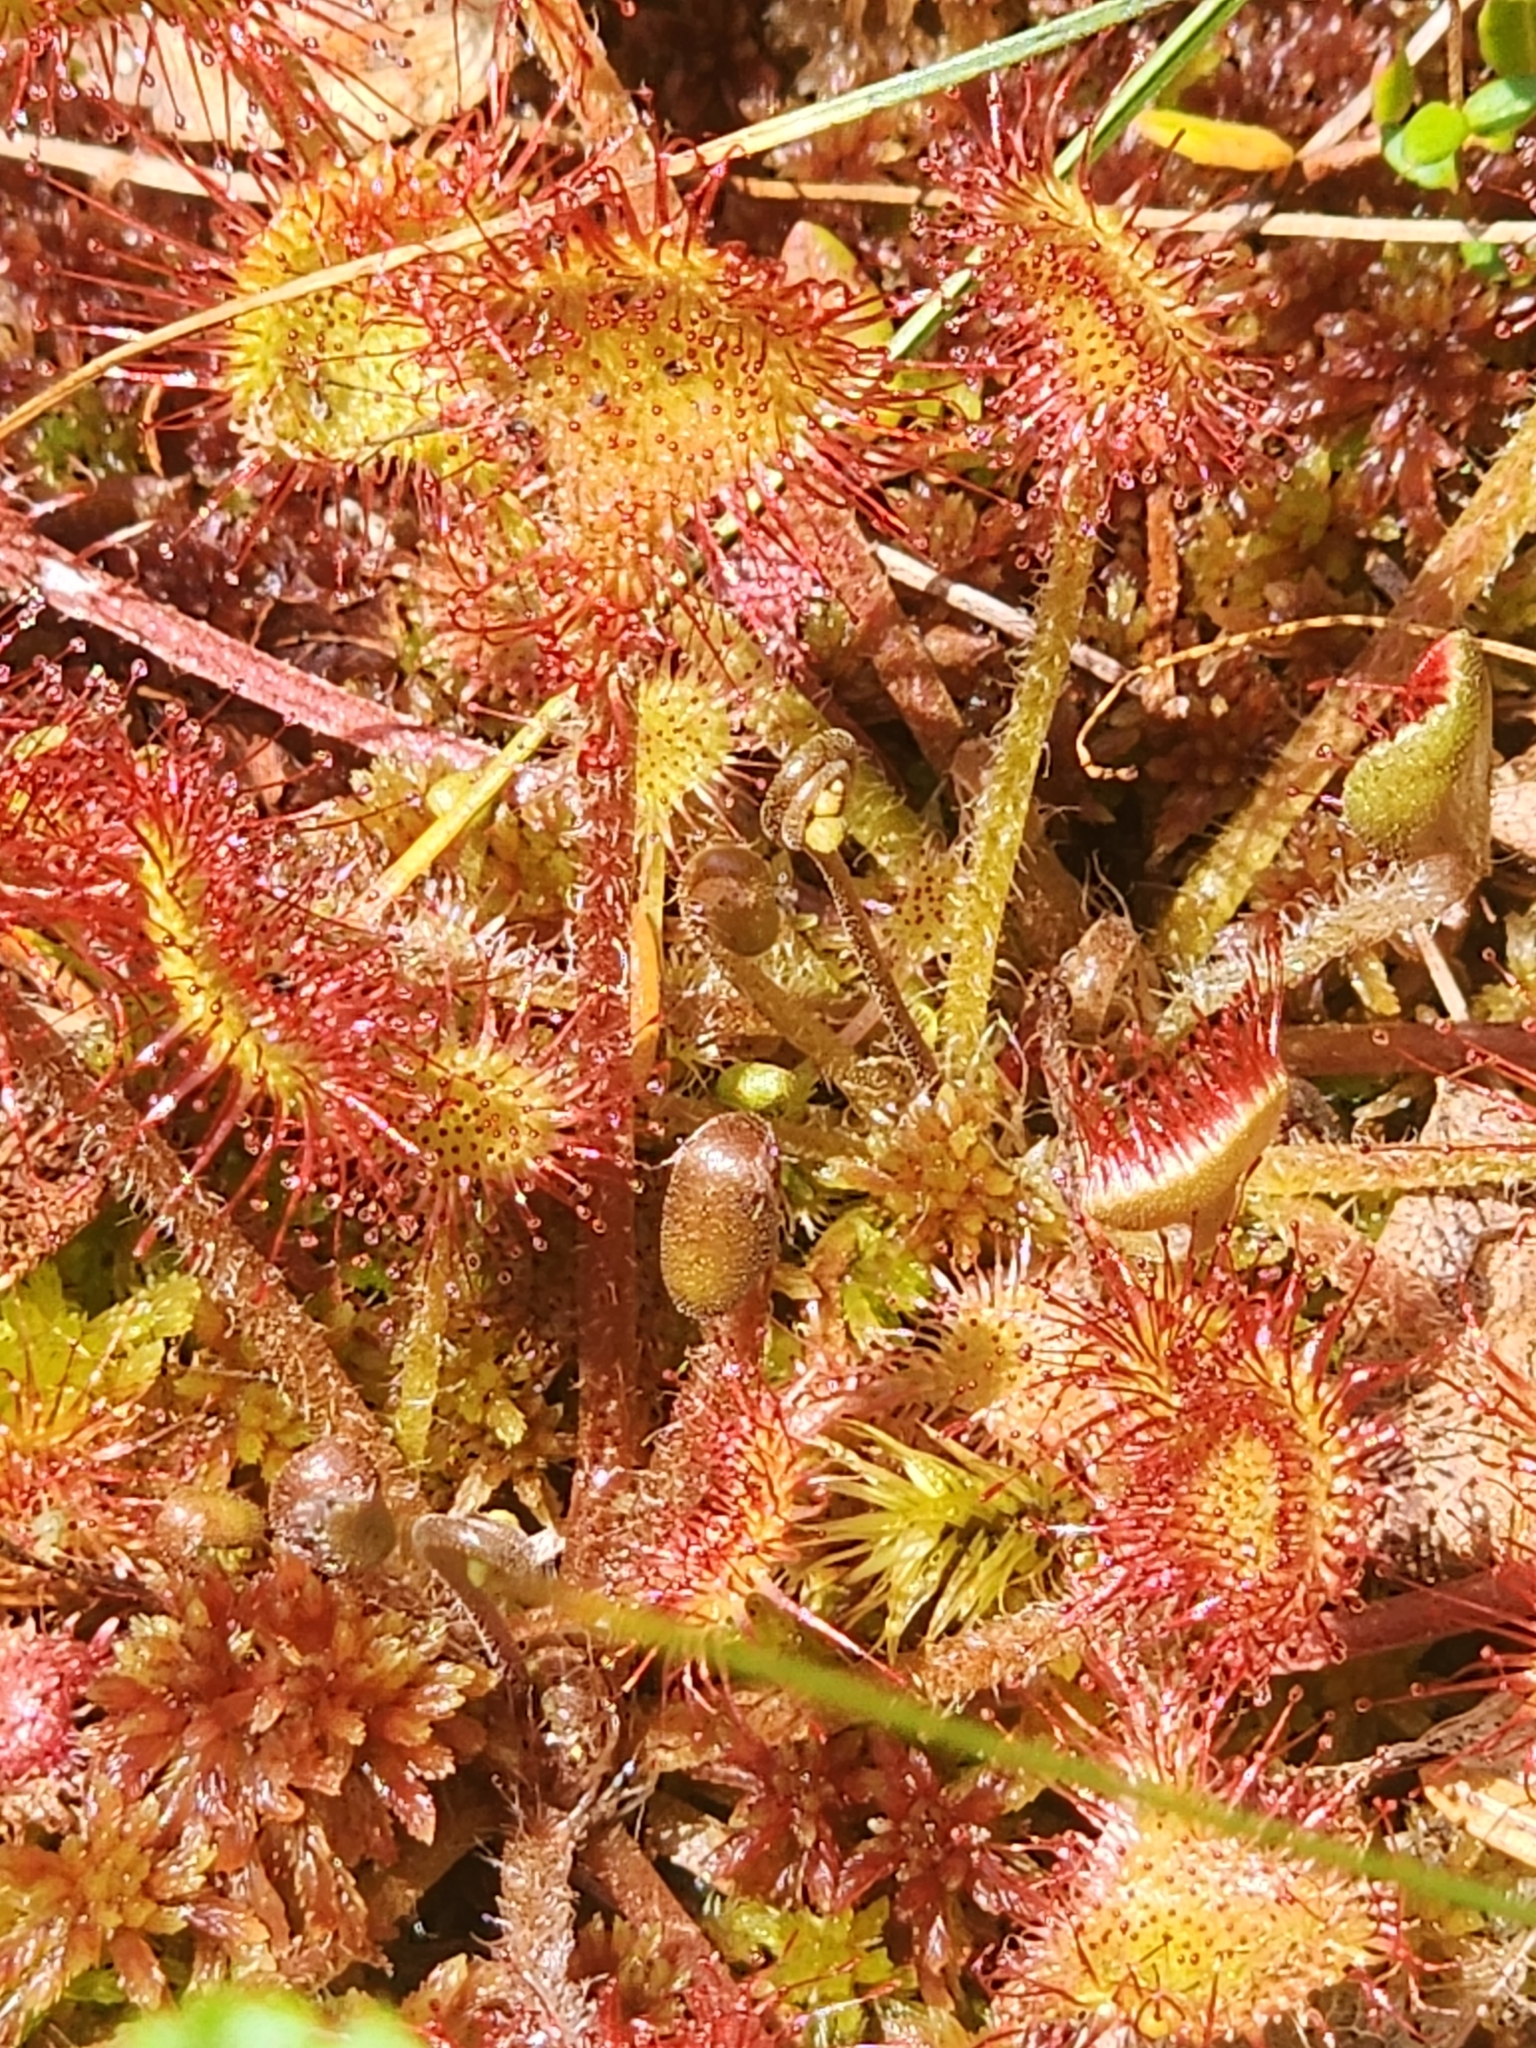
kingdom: Plantae
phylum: Tracheophyta
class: Magnoliopsida
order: Caryophyllales
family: Droseraceae
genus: Drosera
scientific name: Drosera rotundifolia
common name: Round-leaved sundew
